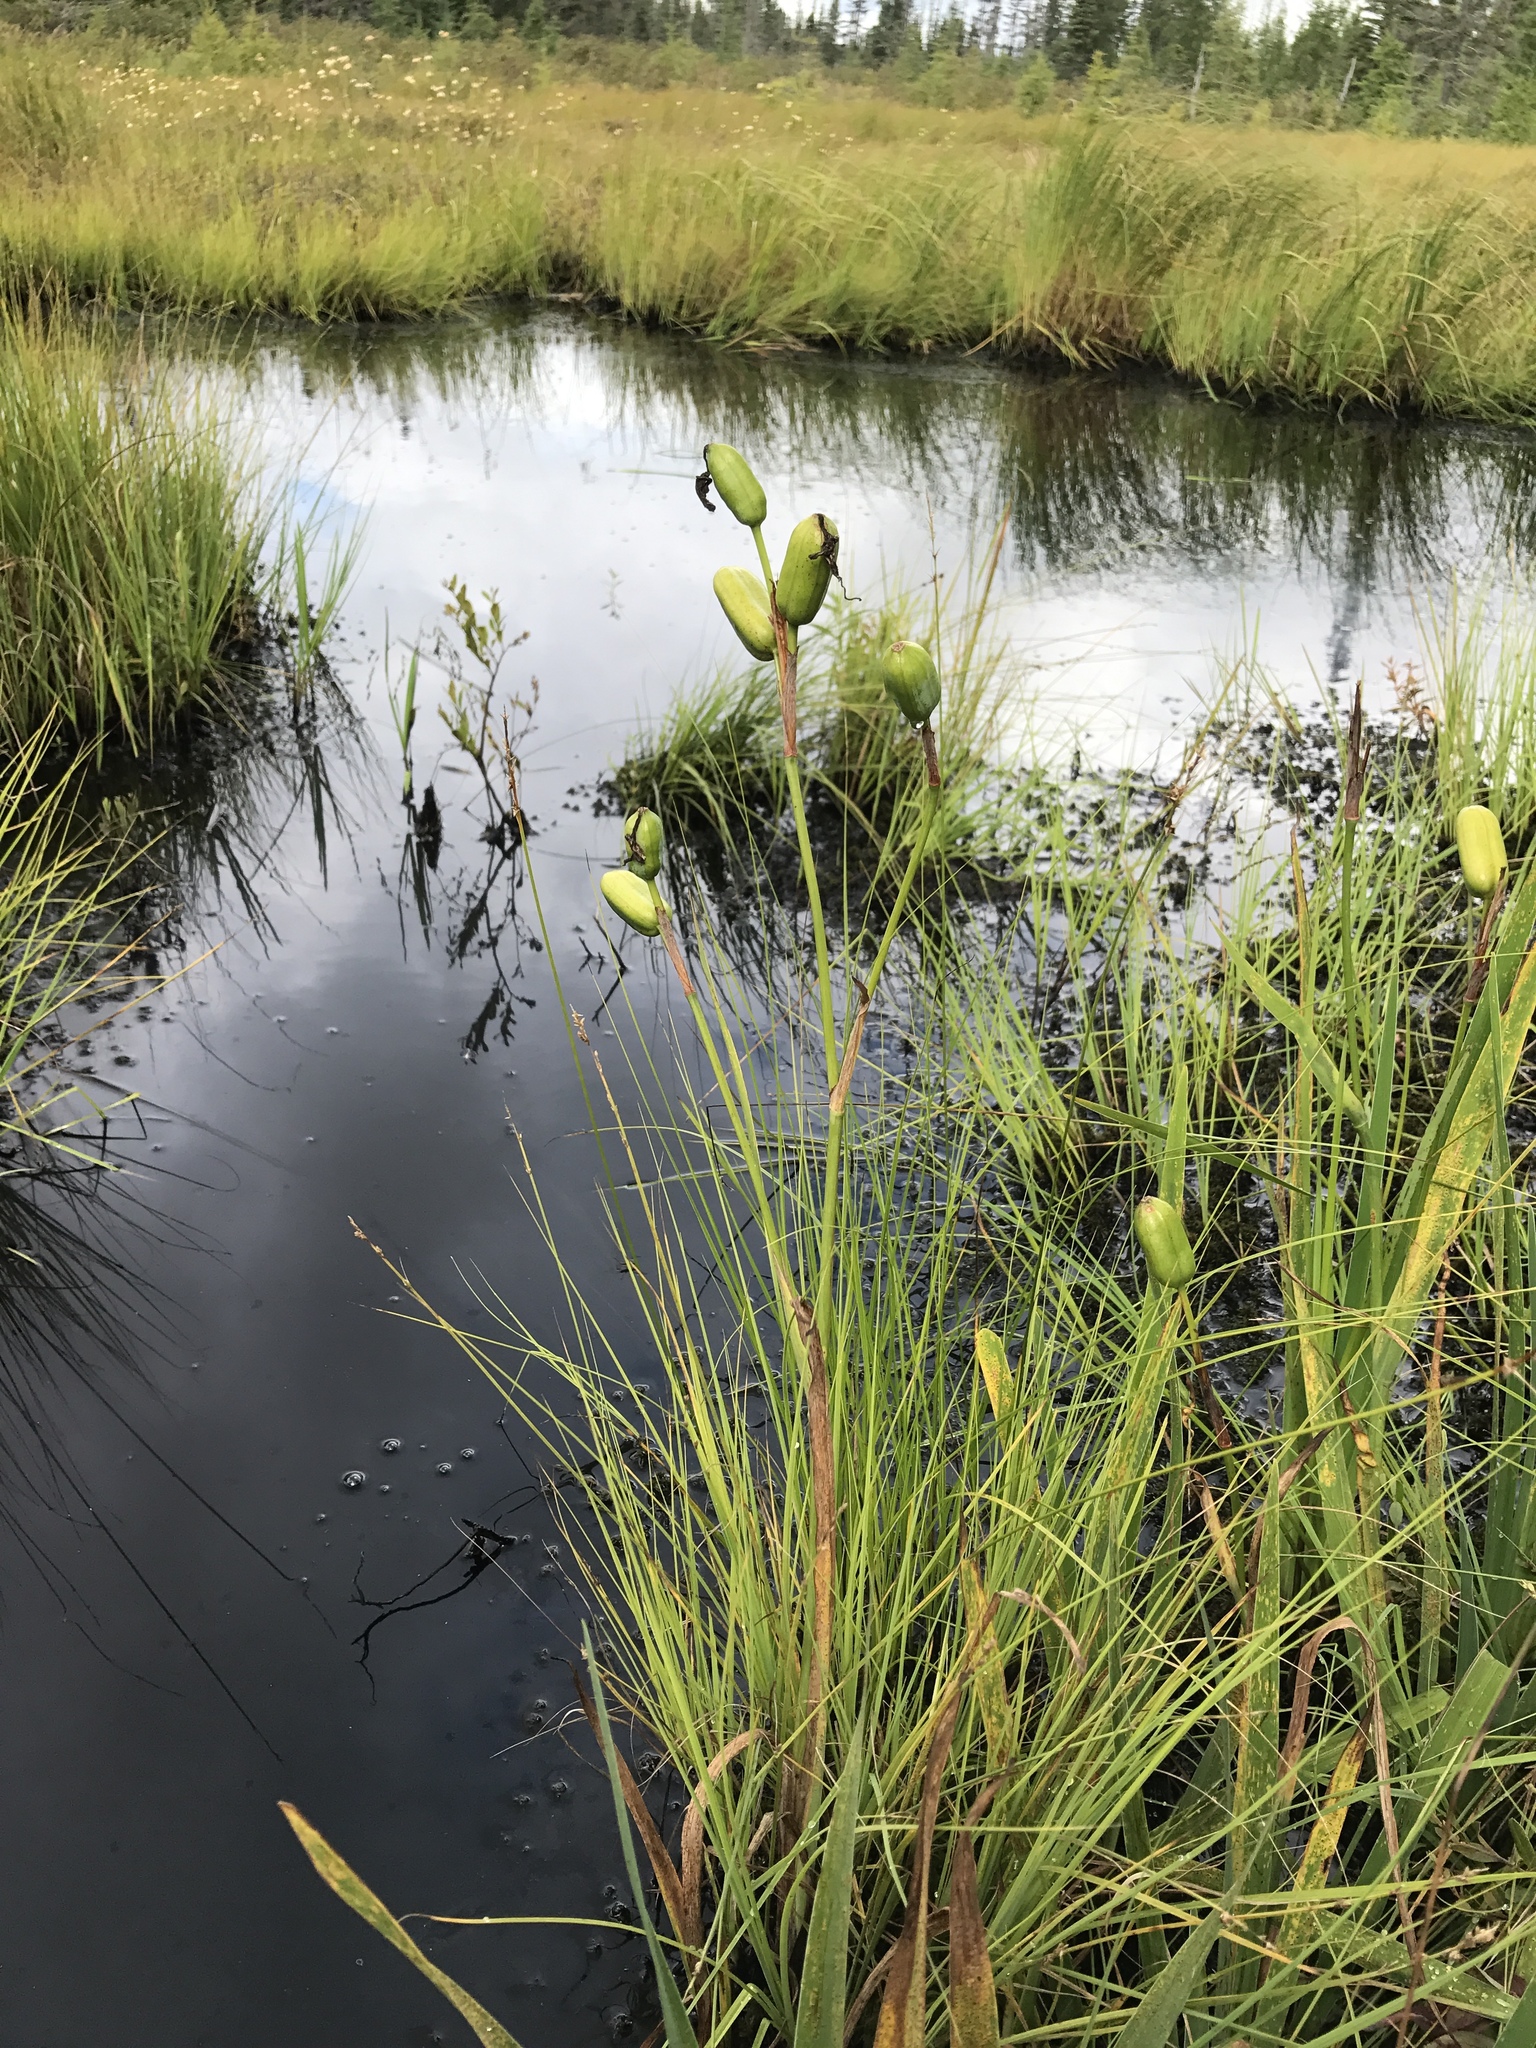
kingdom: Plantae
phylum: Tracheophyta
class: Liliopsida
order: Asparagales
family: Iridaceae
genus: Iris
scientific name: Iris versicolor
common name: Purple iris
